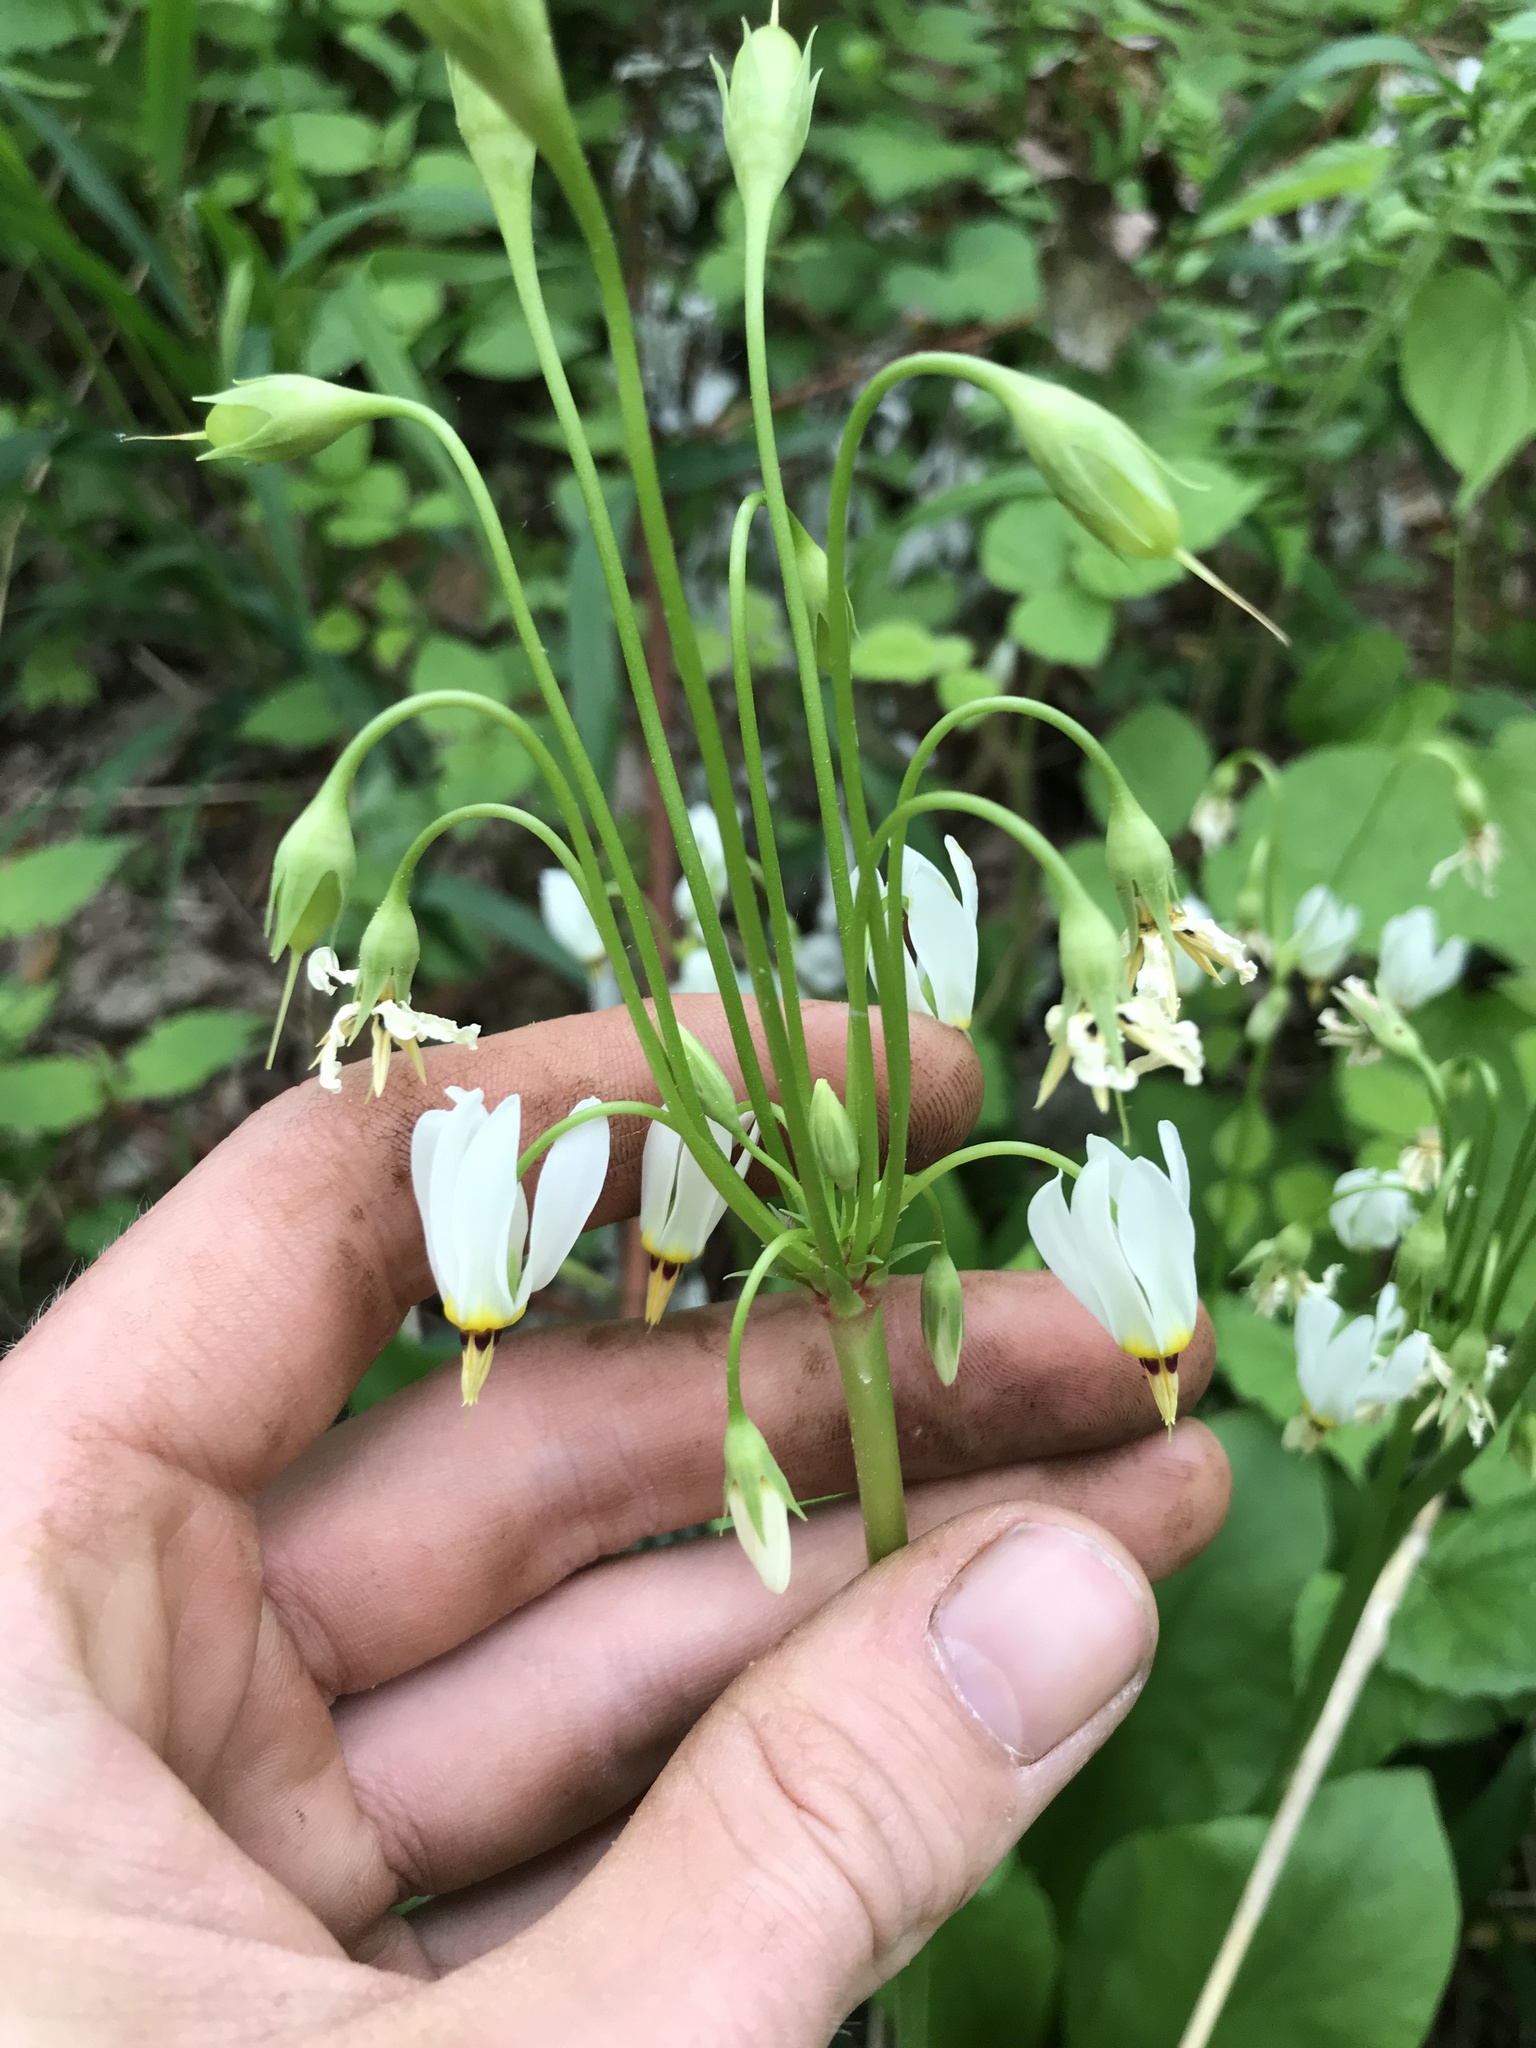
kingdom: Plantae
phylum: Tracheophyta
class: Magnoliopsida
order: Ericales
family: Primulaceae
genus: Dodecatheon
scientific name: Dodecatheon meadia
